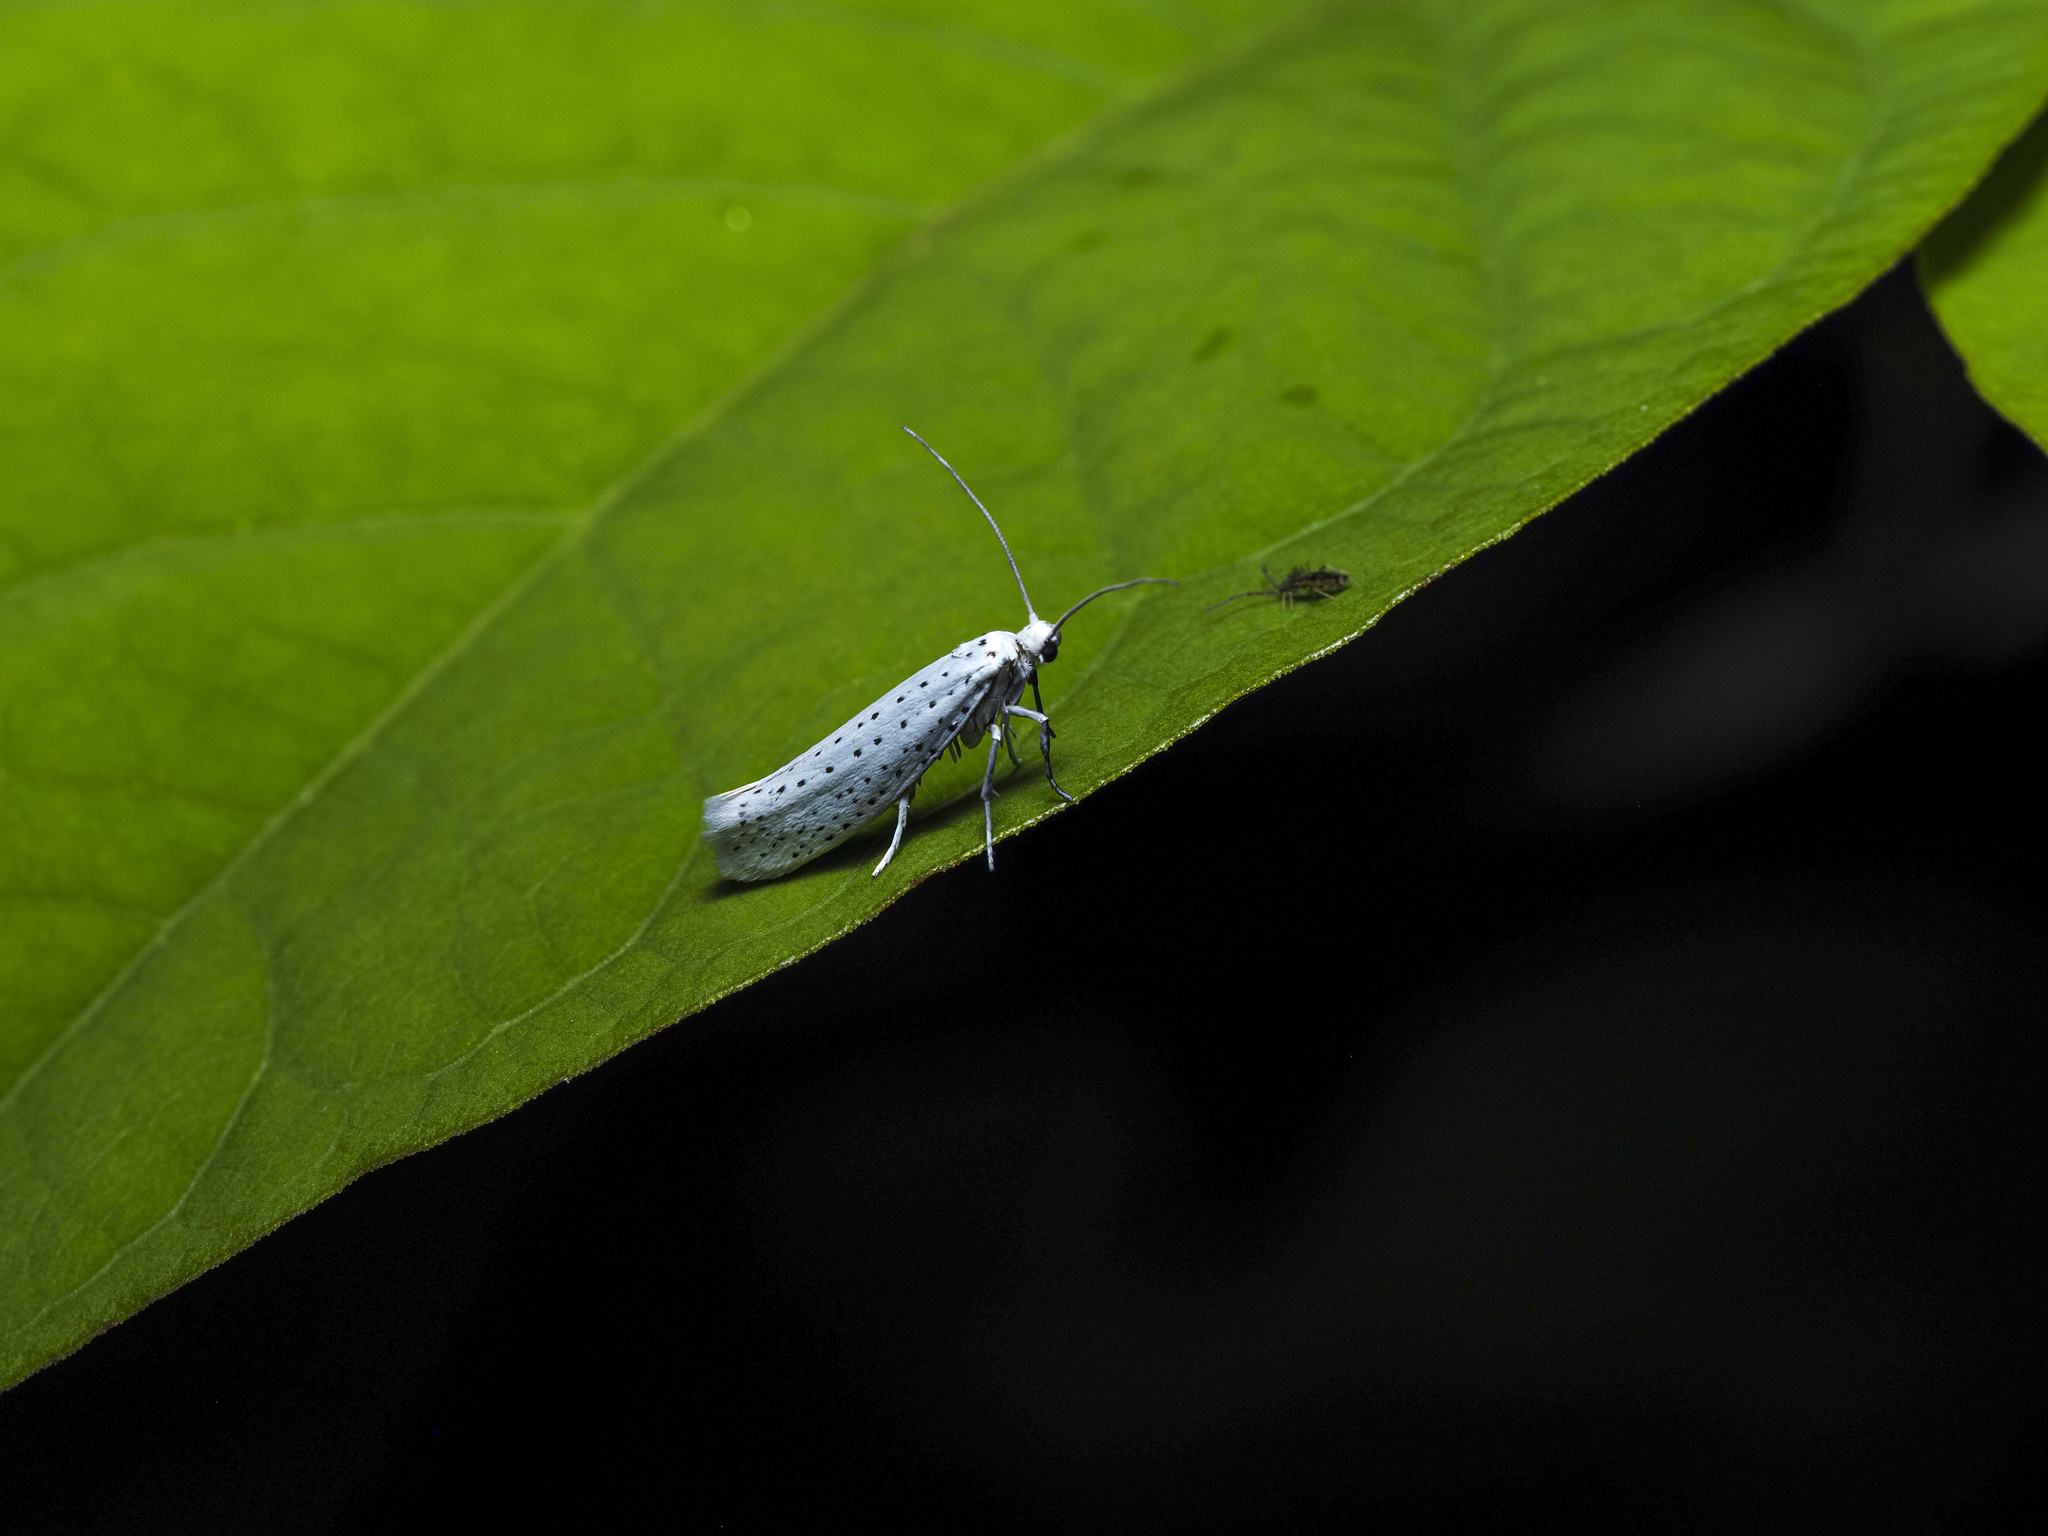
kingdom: Animalia
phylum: Arthropoda
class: Insecta
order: Lepidoptera
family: Geometridae
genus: Abraxas
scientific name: Abraxas sylvata
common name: Clouded magpie
